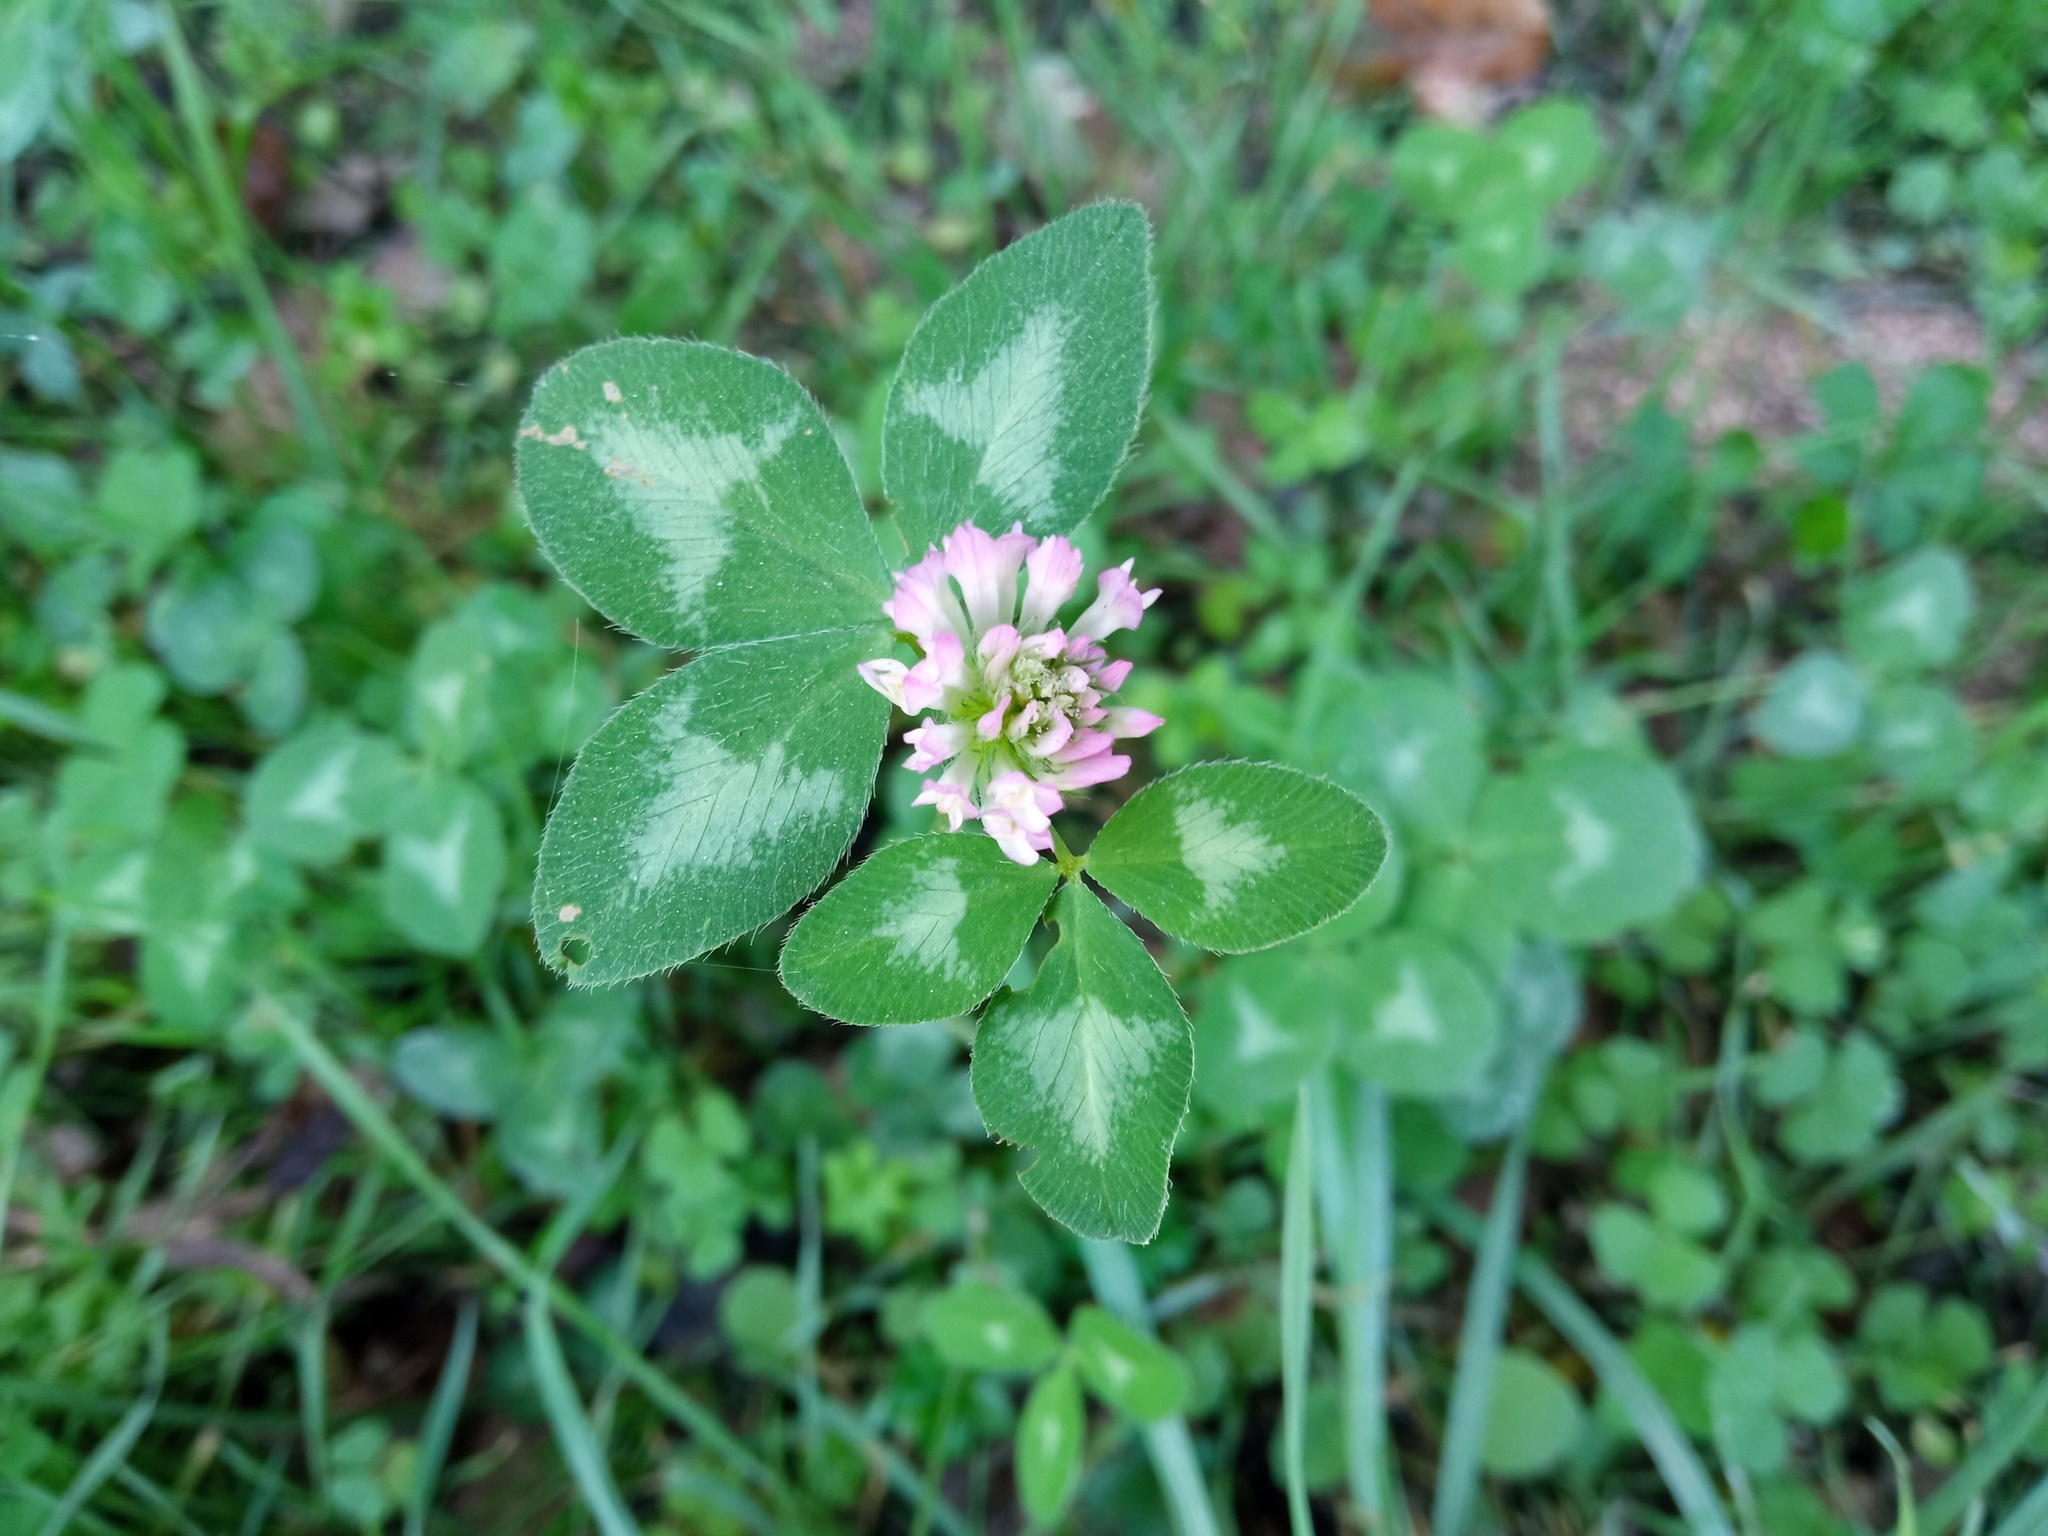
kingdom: Plantae
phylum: Tracheophyta
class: Magnoliopsida
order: Fabales
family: Fabaceae
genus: Trifolium
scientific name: Trifolium pratense
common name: Red clover
